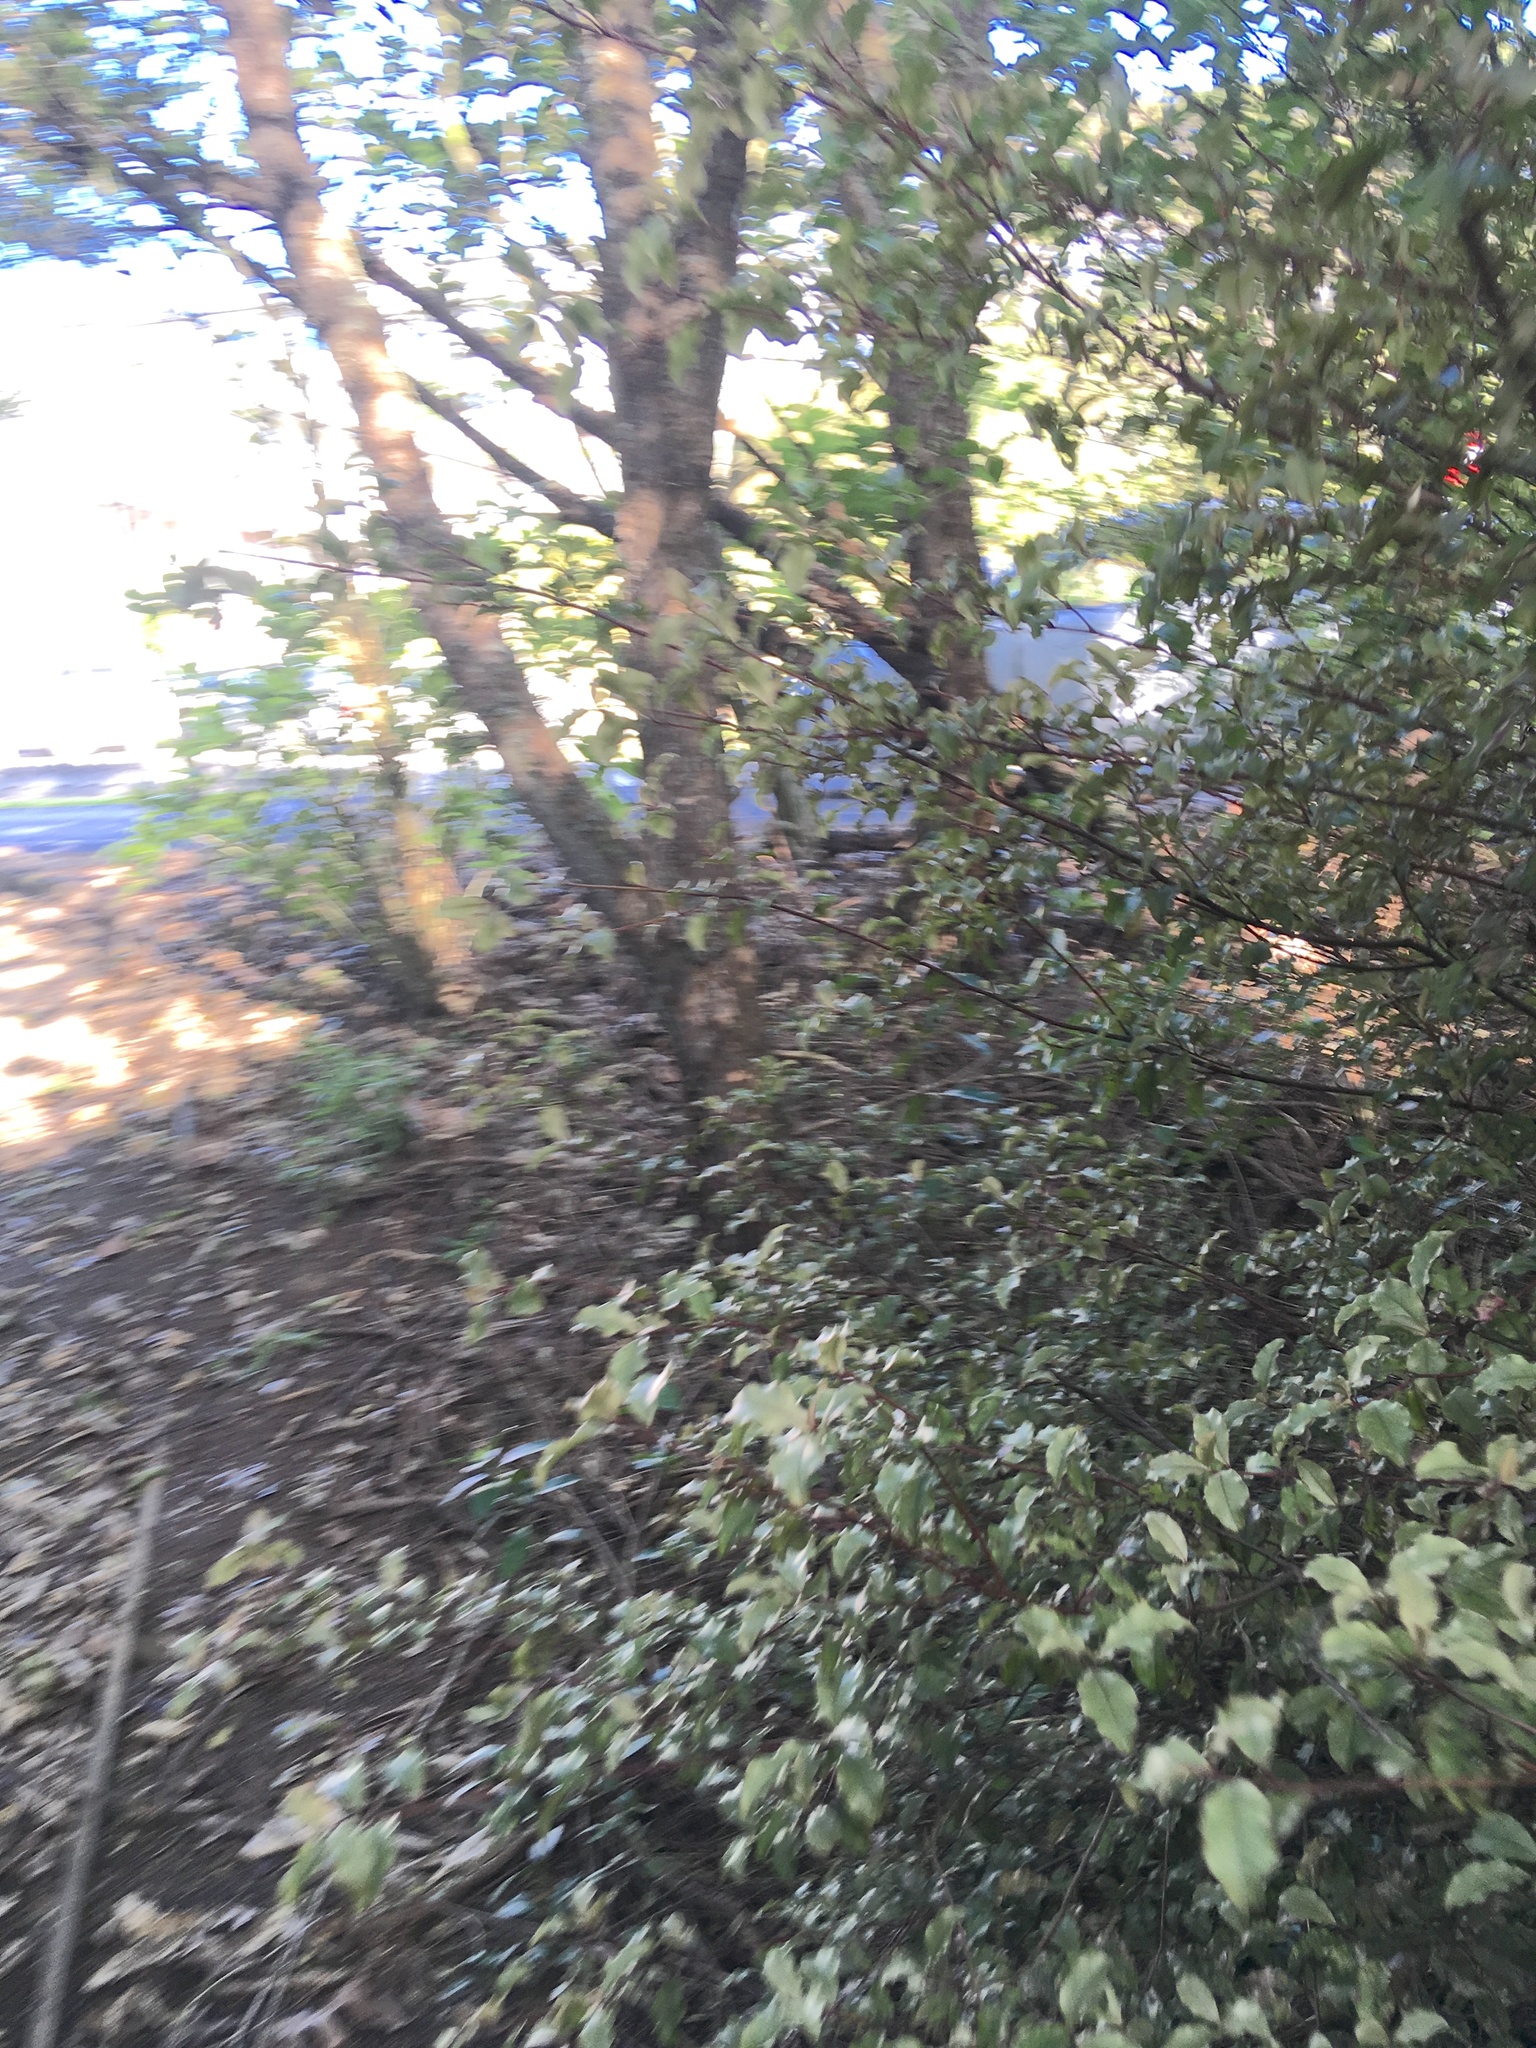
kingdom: Plantae
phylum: Tracheophyta
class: Magnoliopsida
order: Ericales
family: Primulaceae
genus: Myrsine
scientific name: Myrsine australis
